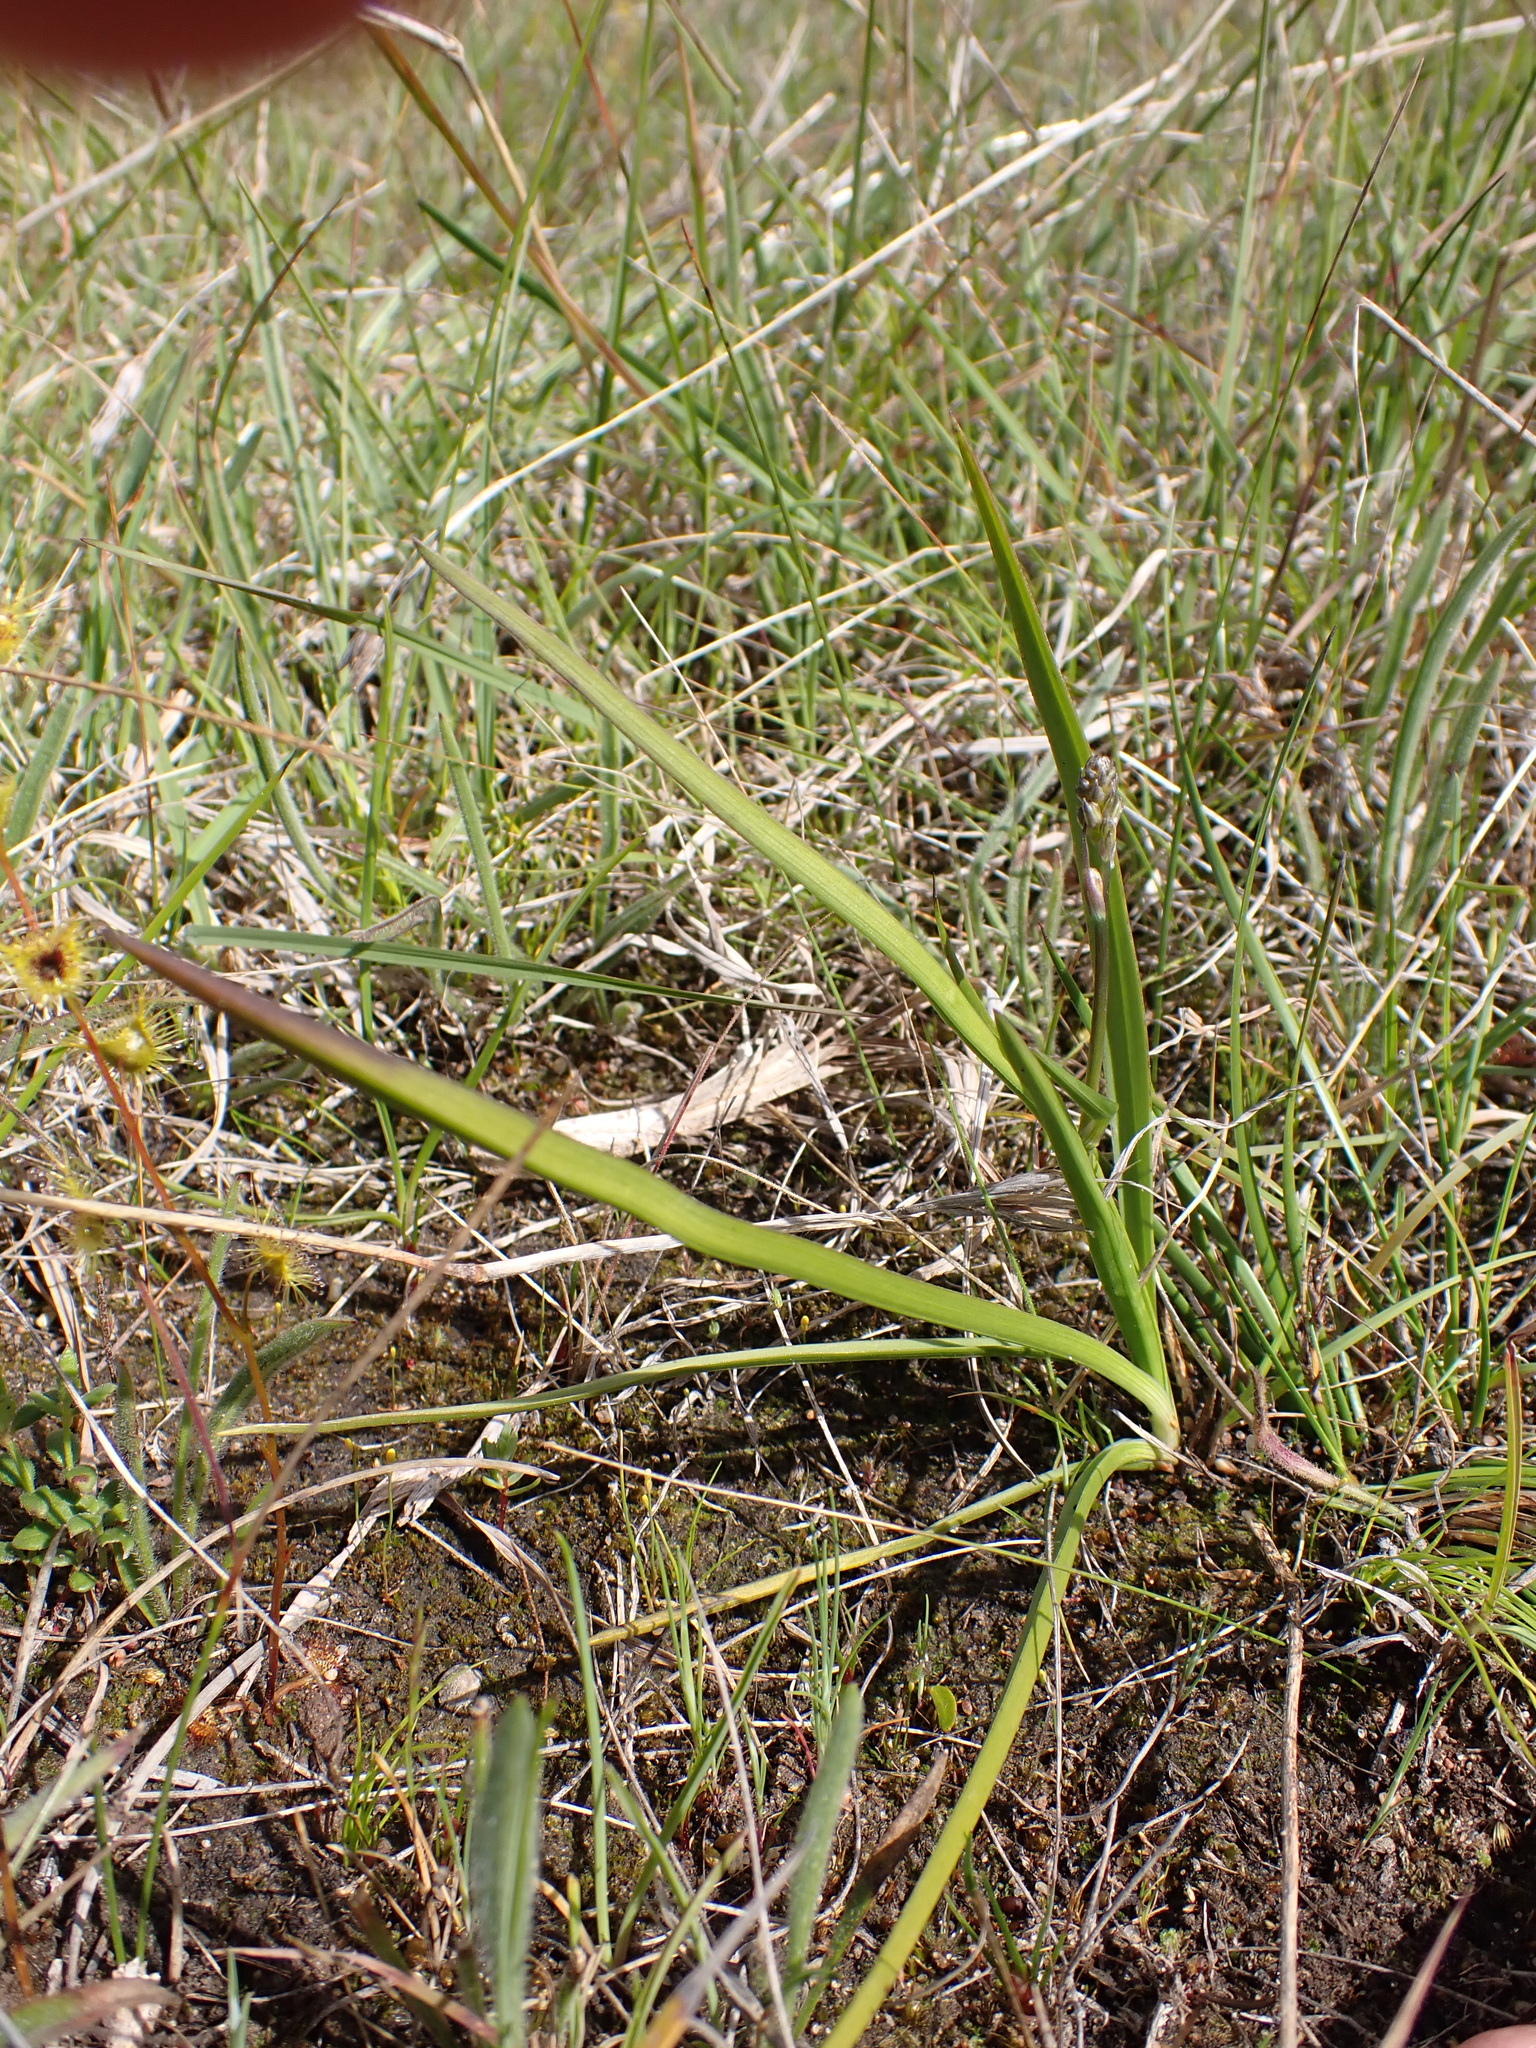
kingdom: Plantae
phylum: Tracheophyta
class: Liliopsida
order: Asparagales
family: Asphodelaceae
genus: Caesia
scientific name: Caesia calliantha
